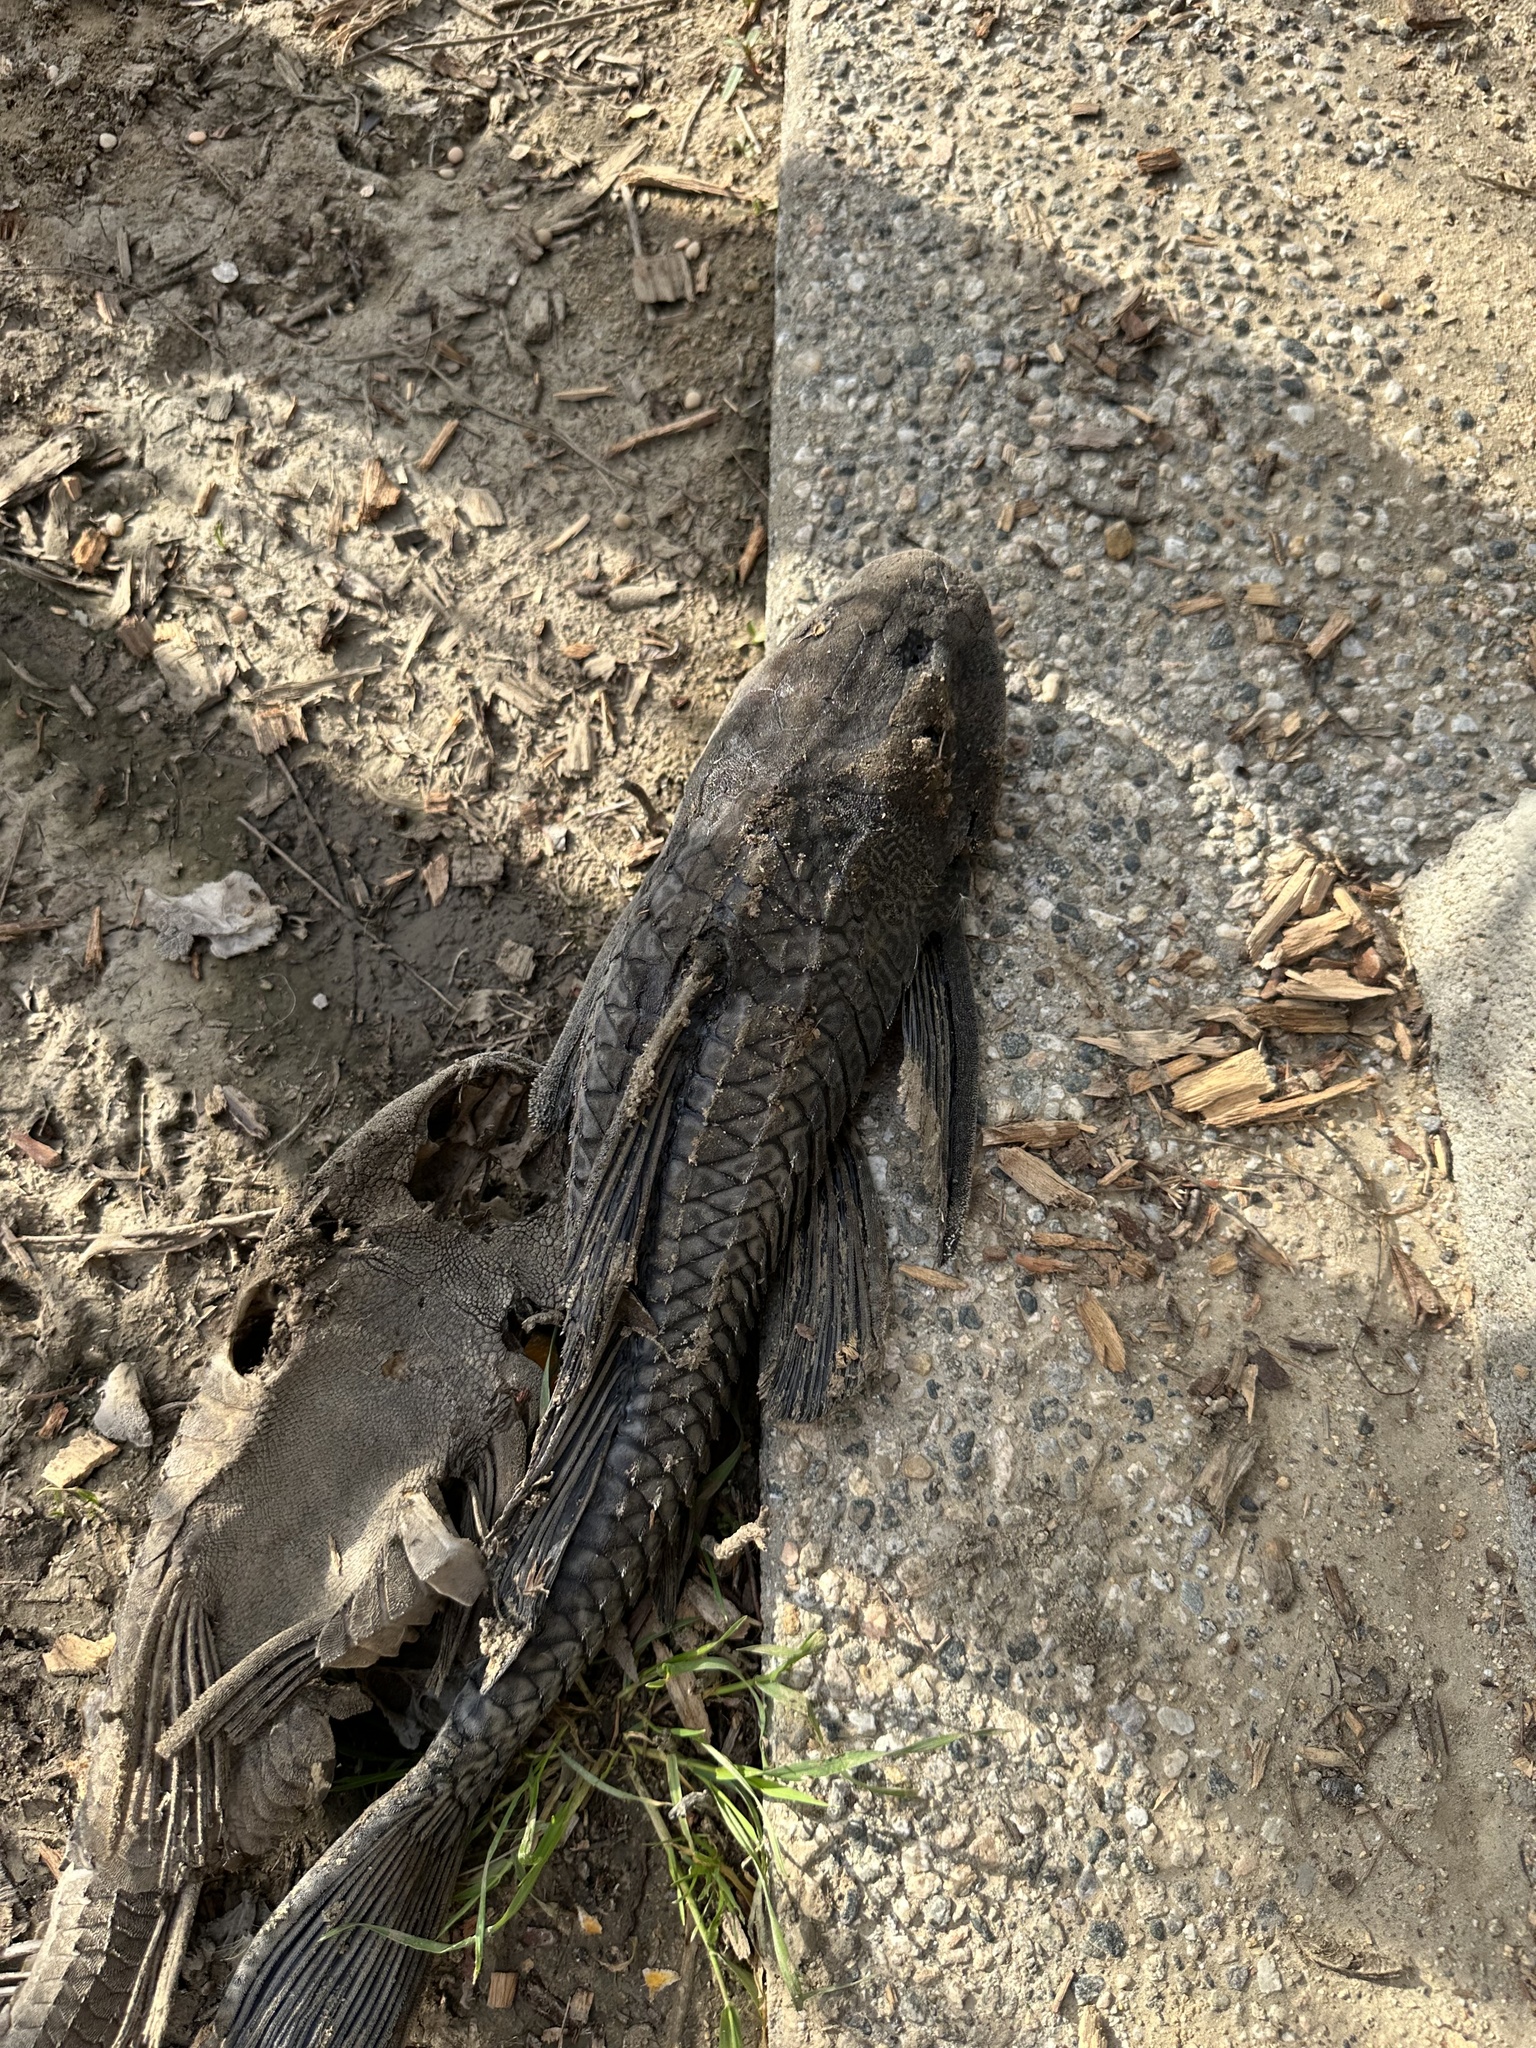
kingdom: Animalia
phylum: Chordata
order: Siluriformes
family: Loricariidae
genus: Pterygoplichthys
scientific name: Pterygoplichthys
